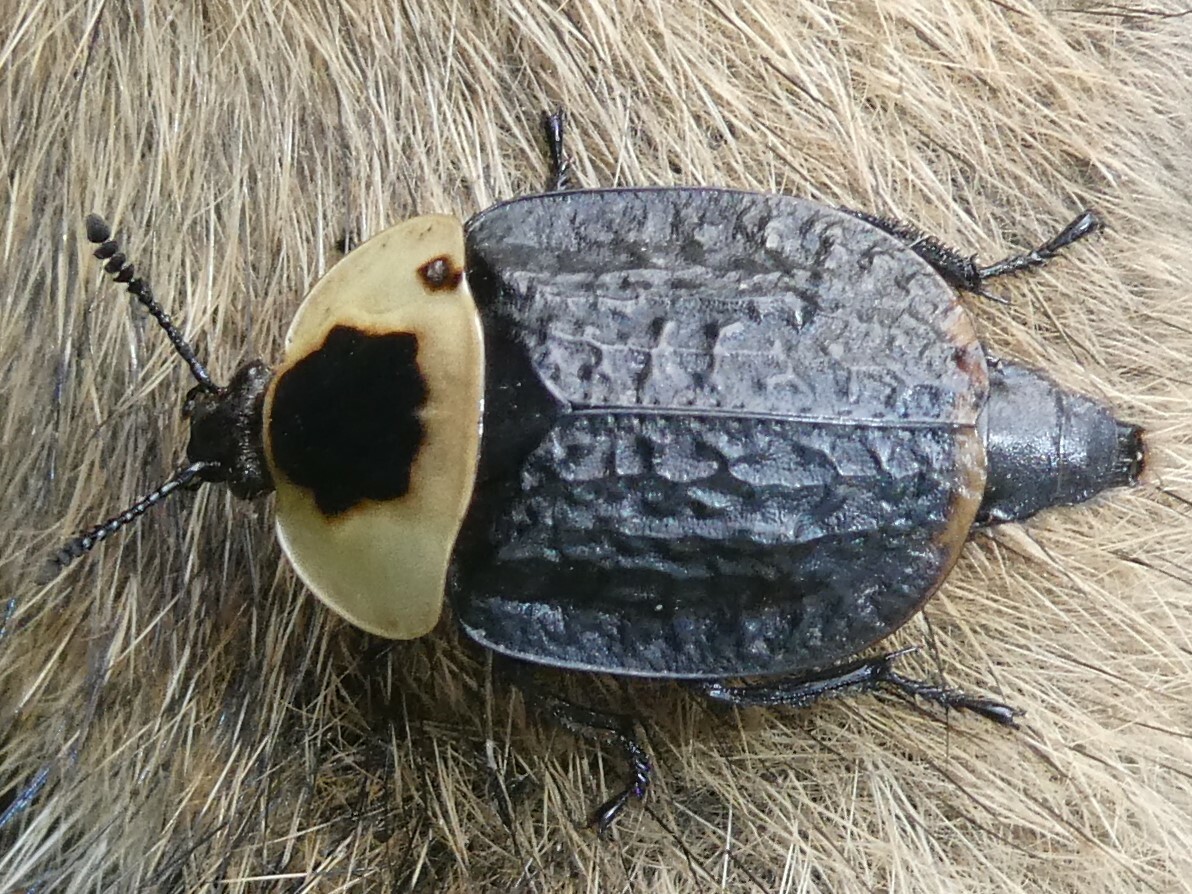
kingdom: Animalia
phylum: Arthropoda
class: Insecta
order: Coleoptera
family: Staphylinidae
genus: Necrophila
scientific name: Necrophila americana
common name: American carrion beetle
